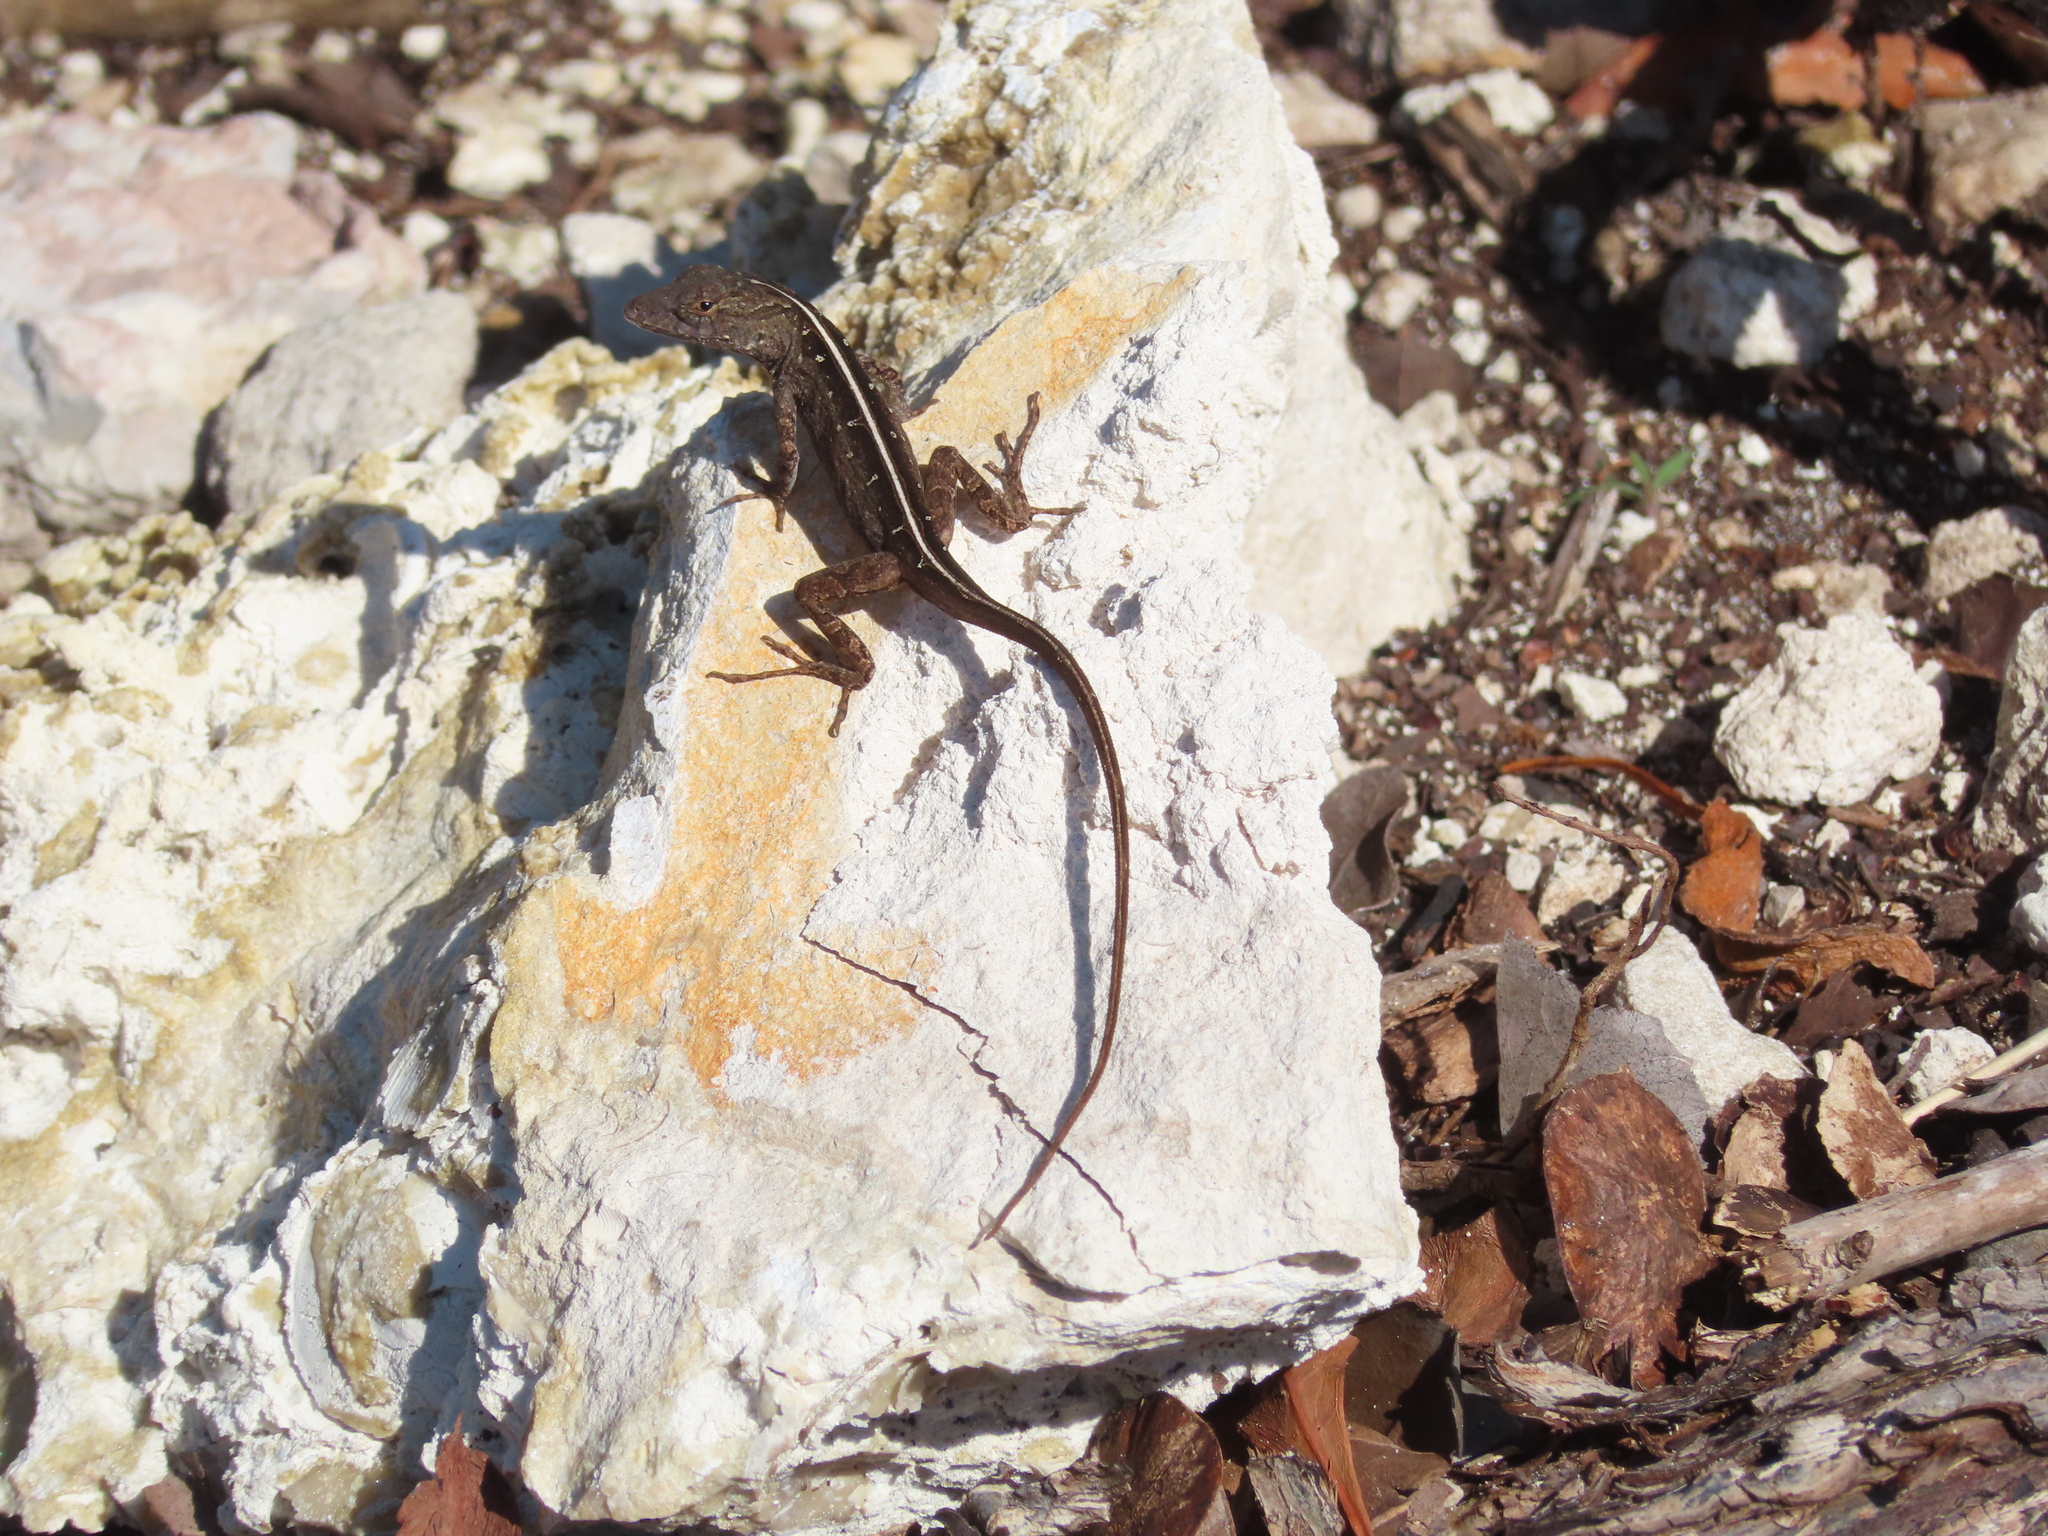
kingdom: Animalia
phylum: Chordata
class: Squamata
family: Dactyloidae
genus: Anolis
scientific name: Anolis sagrei
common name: Brown anole
